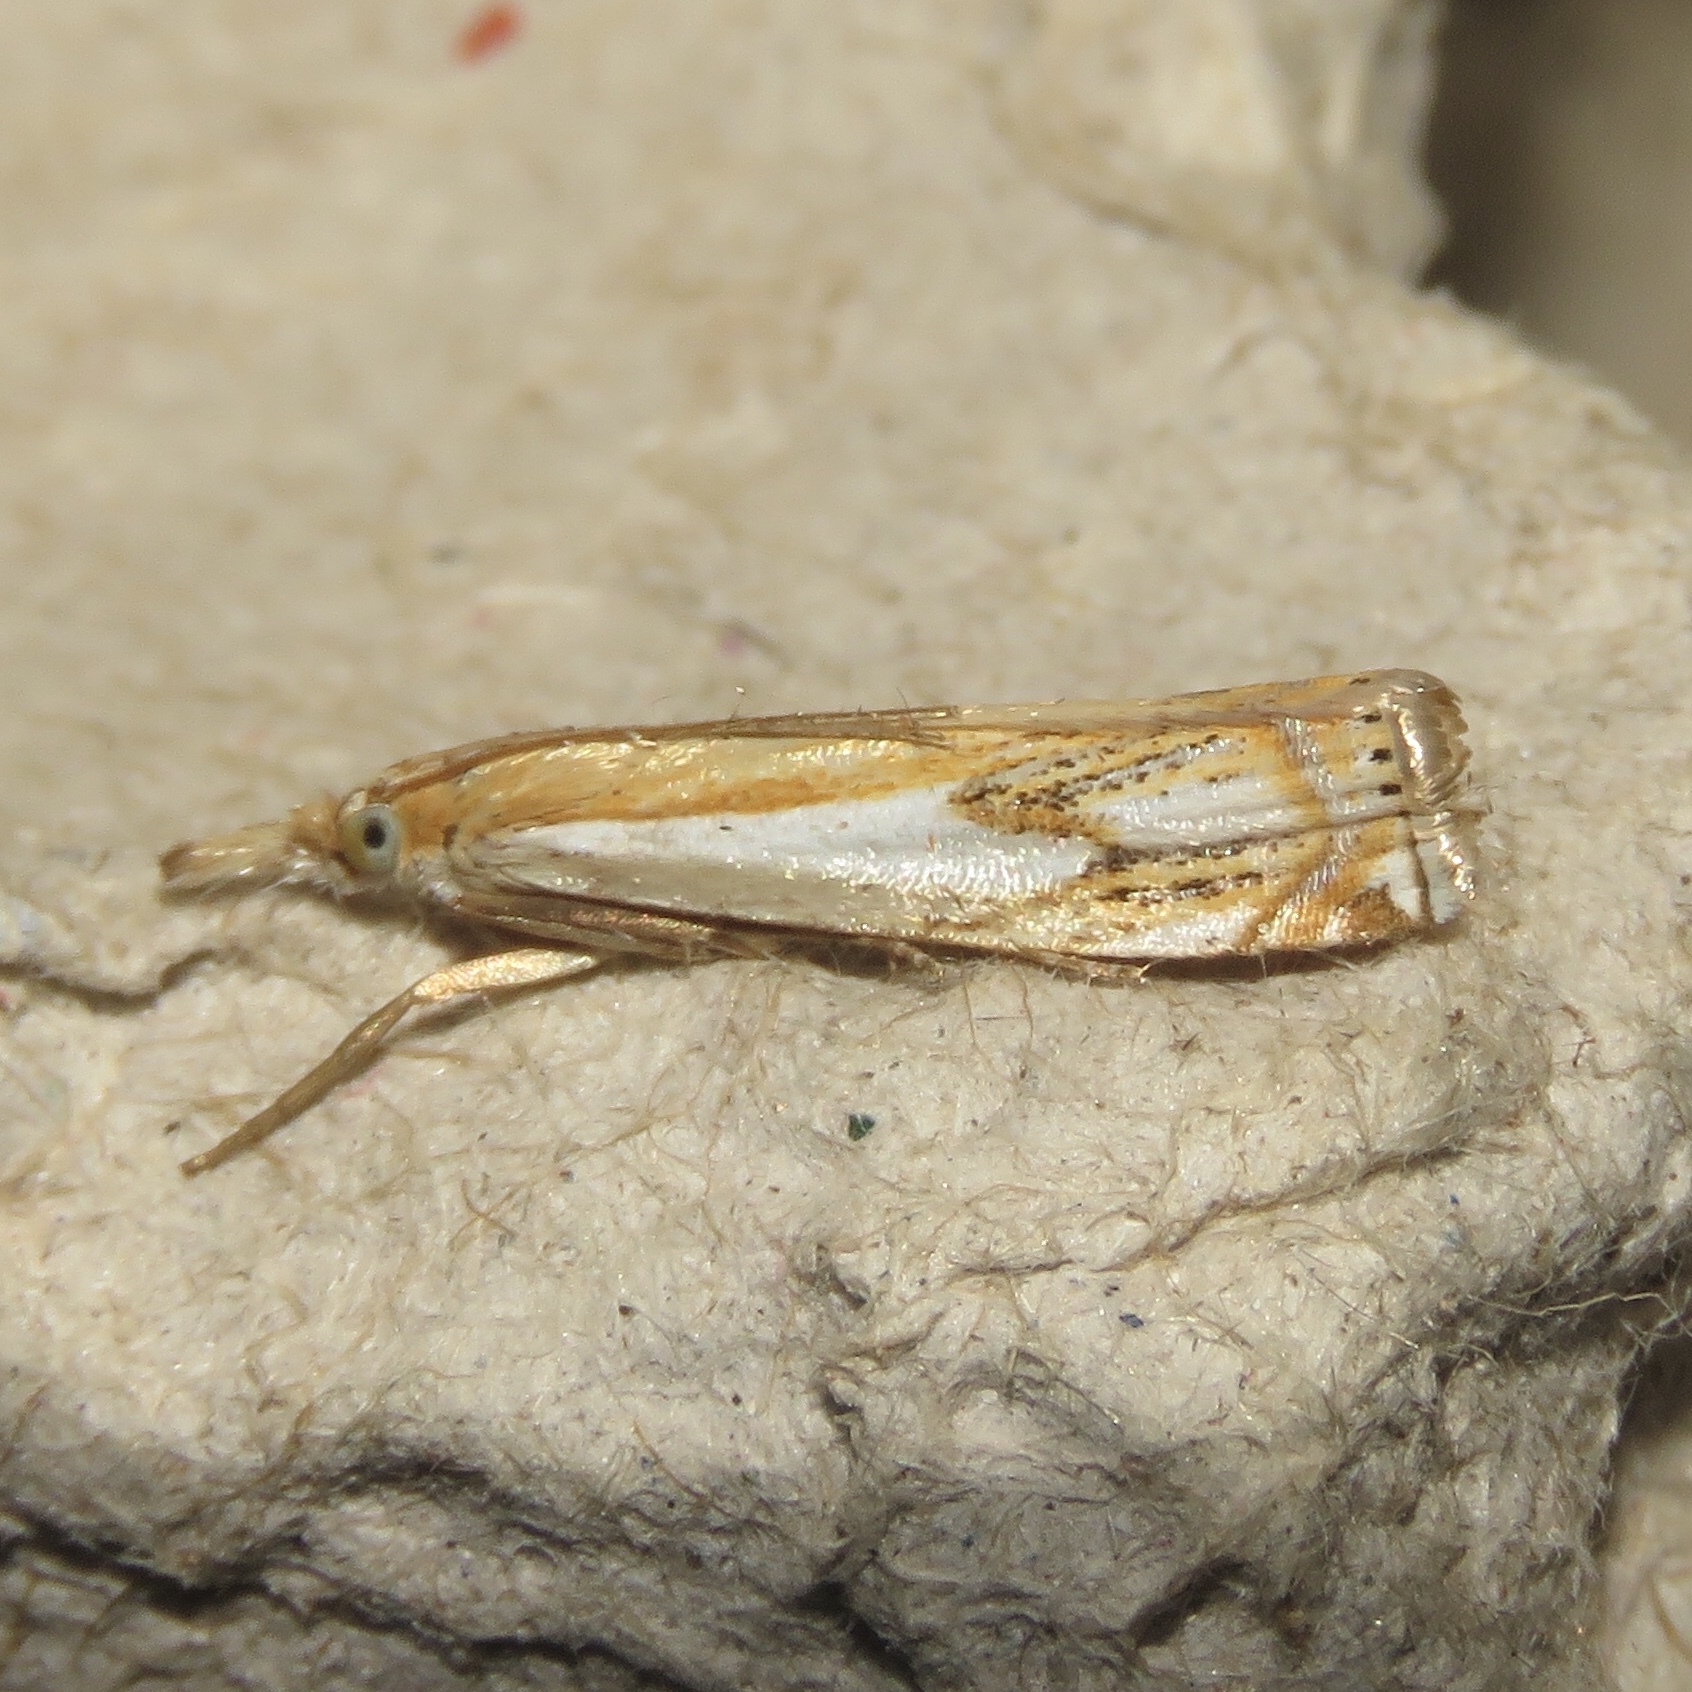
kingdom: Animalia
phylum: Arthropoda
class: Insecta
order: Lepidoptera
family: Crambidae
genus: Crambus
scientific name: Crambus agitatellus
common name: Double-banded grass-veneer
